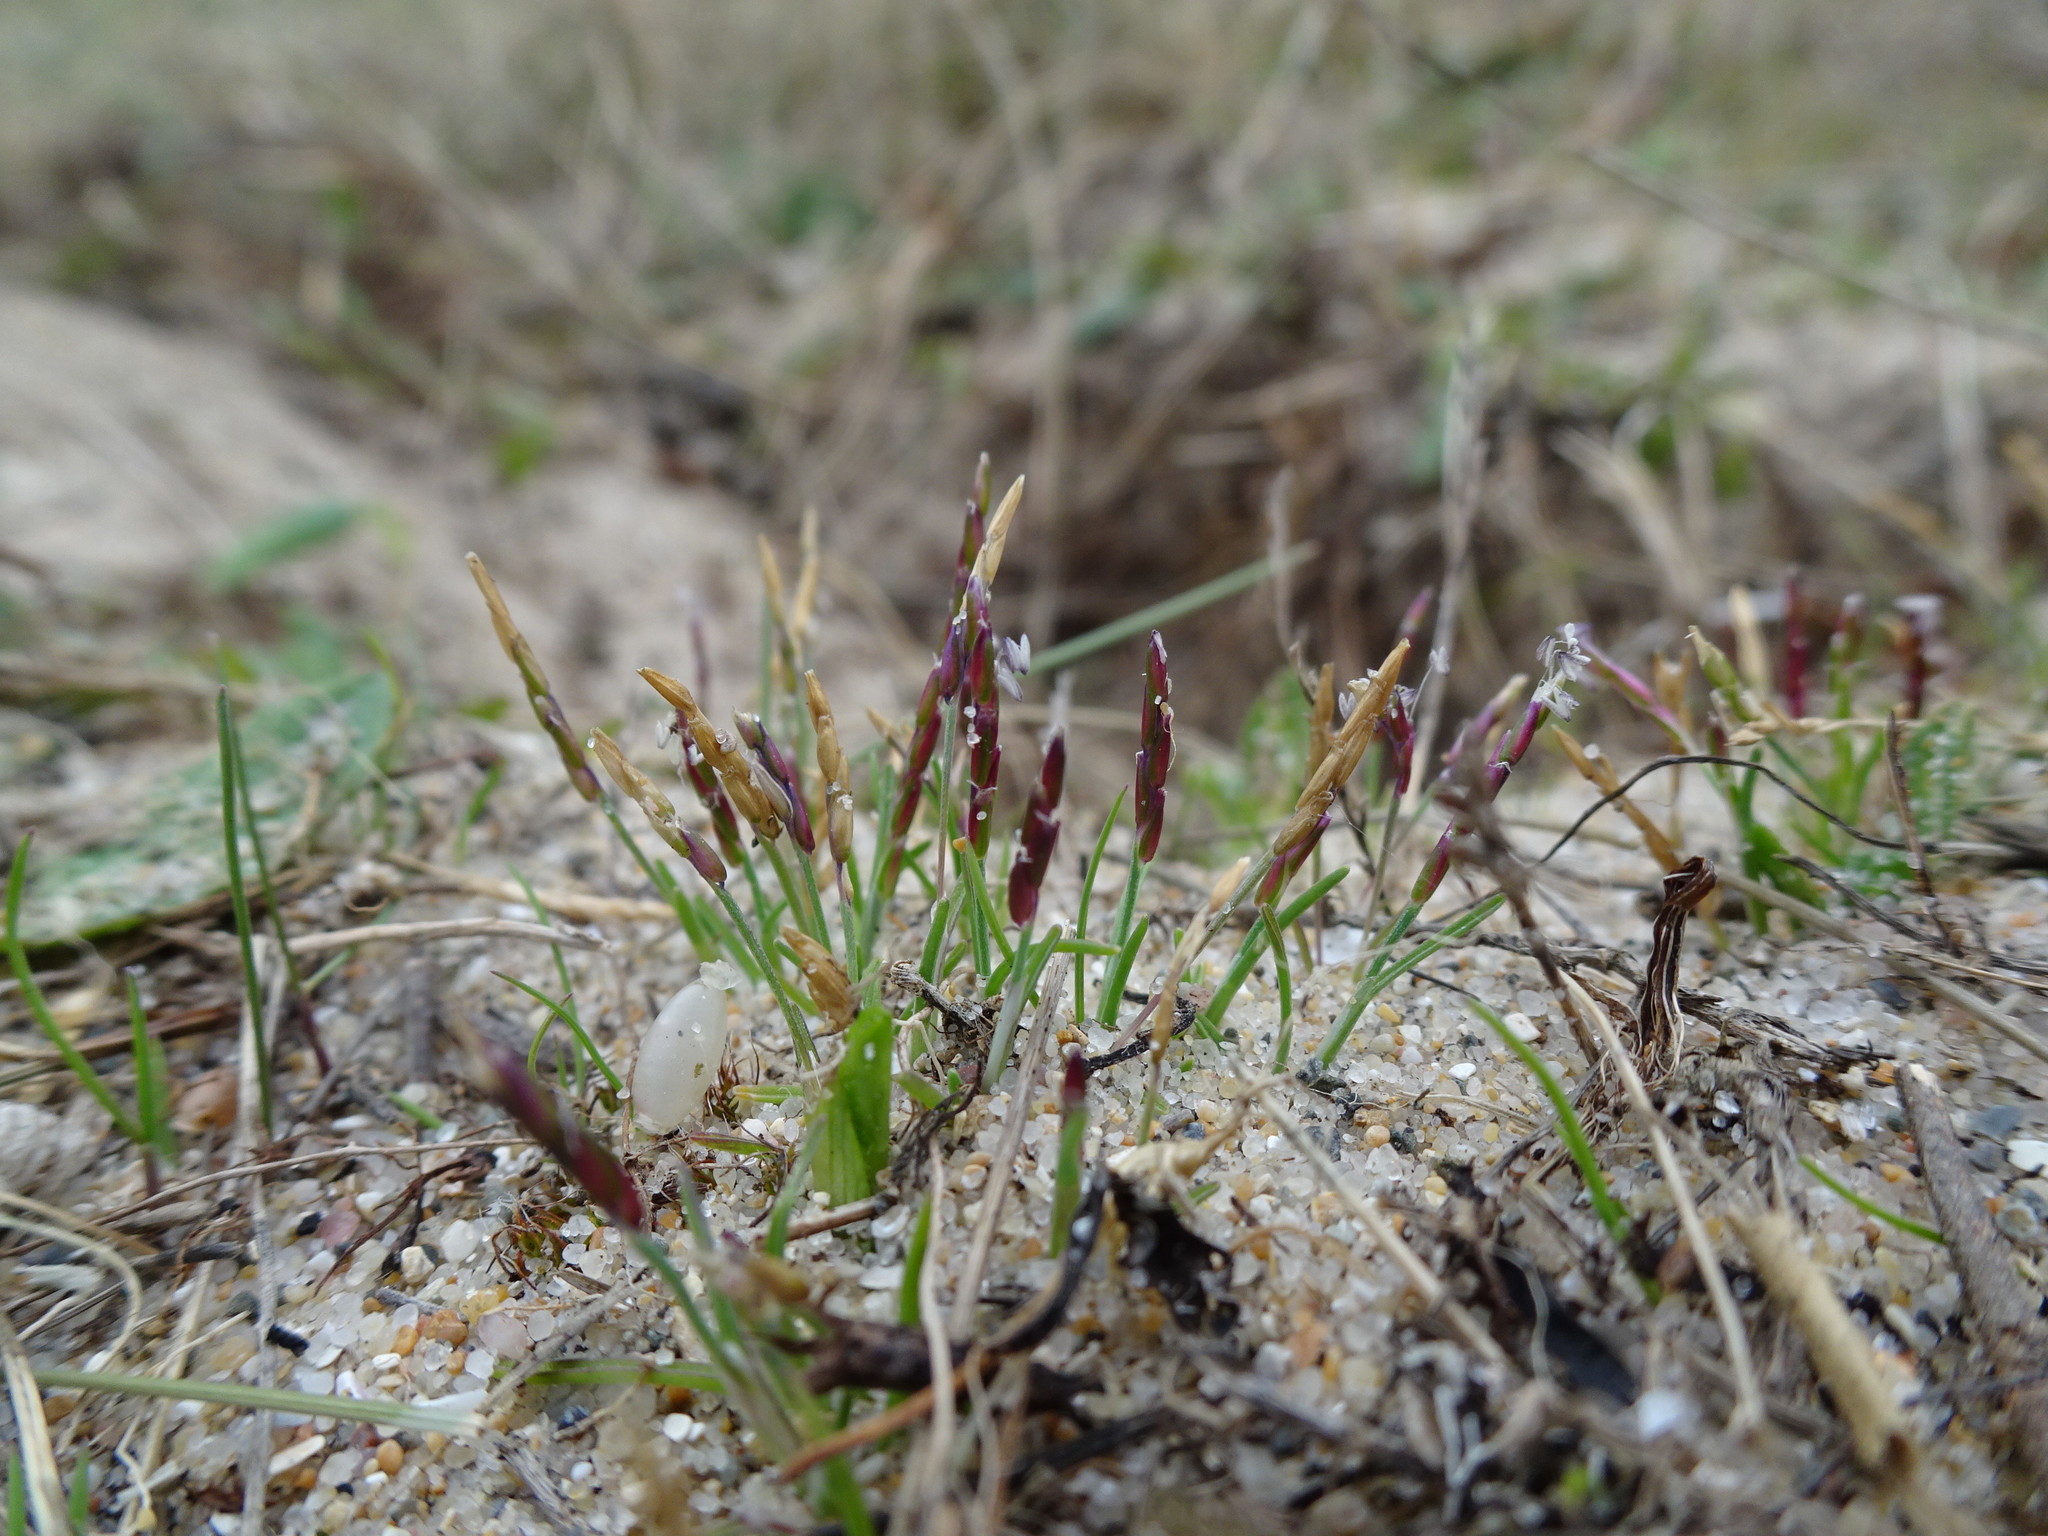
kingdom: Plantae
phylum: Tracheophyta
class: Liliopsida
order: Poales
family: Poaceae
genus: Mibora
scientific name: Mibora minima
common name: Early sand-grass
